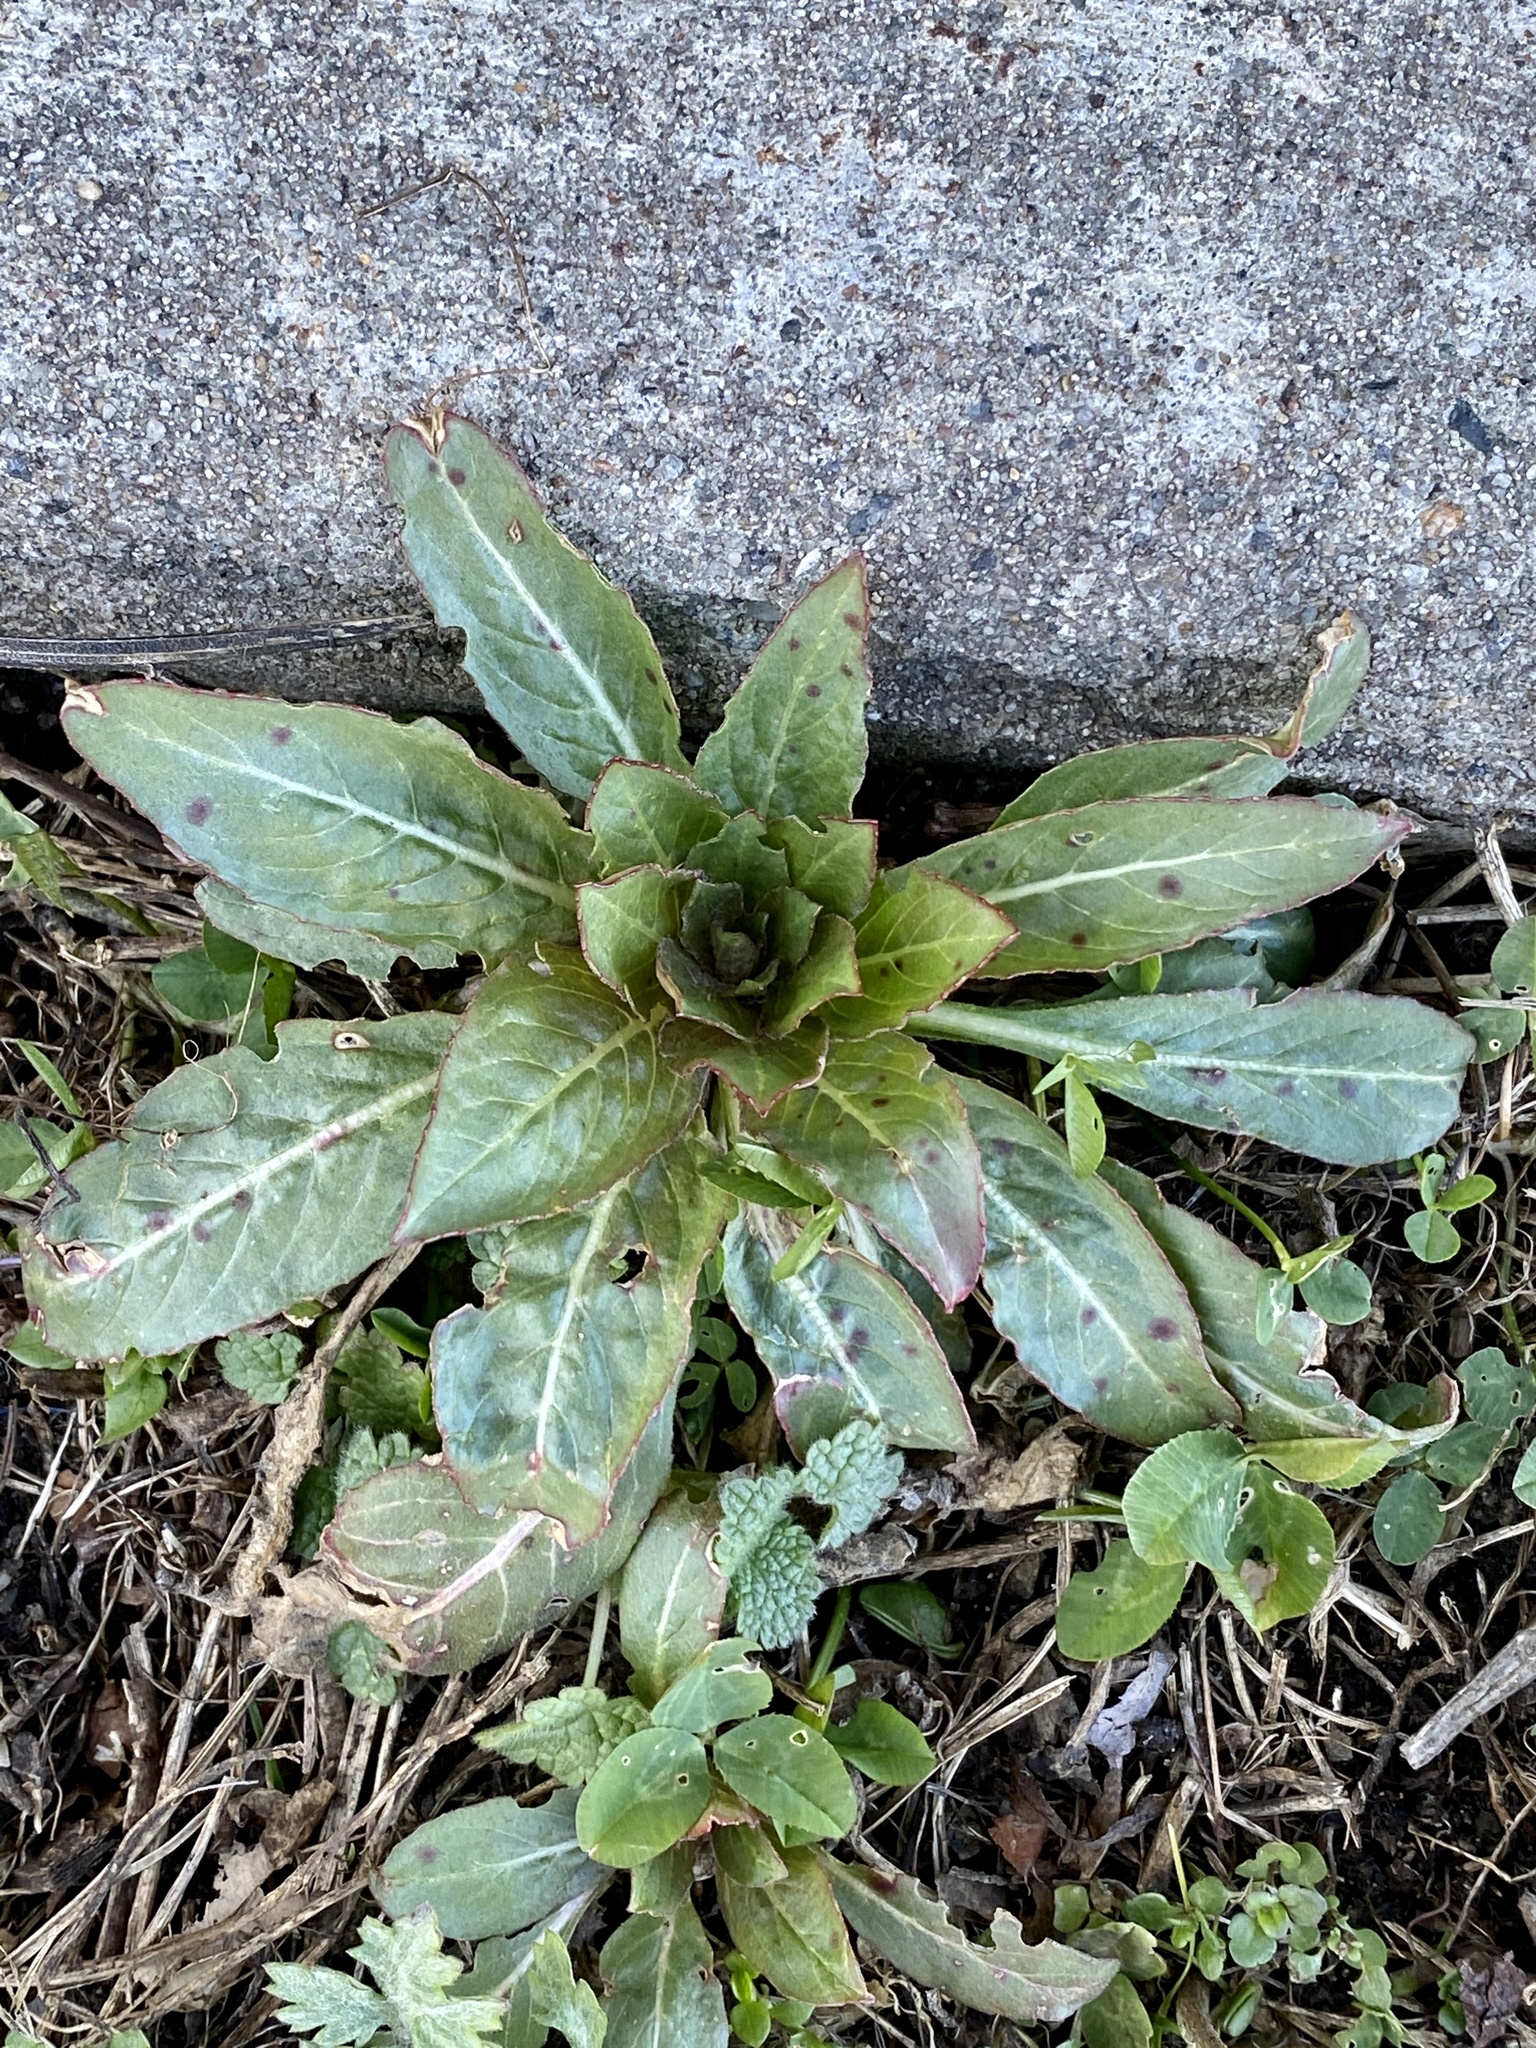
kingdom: Plantae
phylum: Tracheophyta
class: Magnoliopsida
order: Myrtales
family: Onagraceae
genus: Oenothera
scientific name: Oenothera biennis
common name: Common evening-primrose
